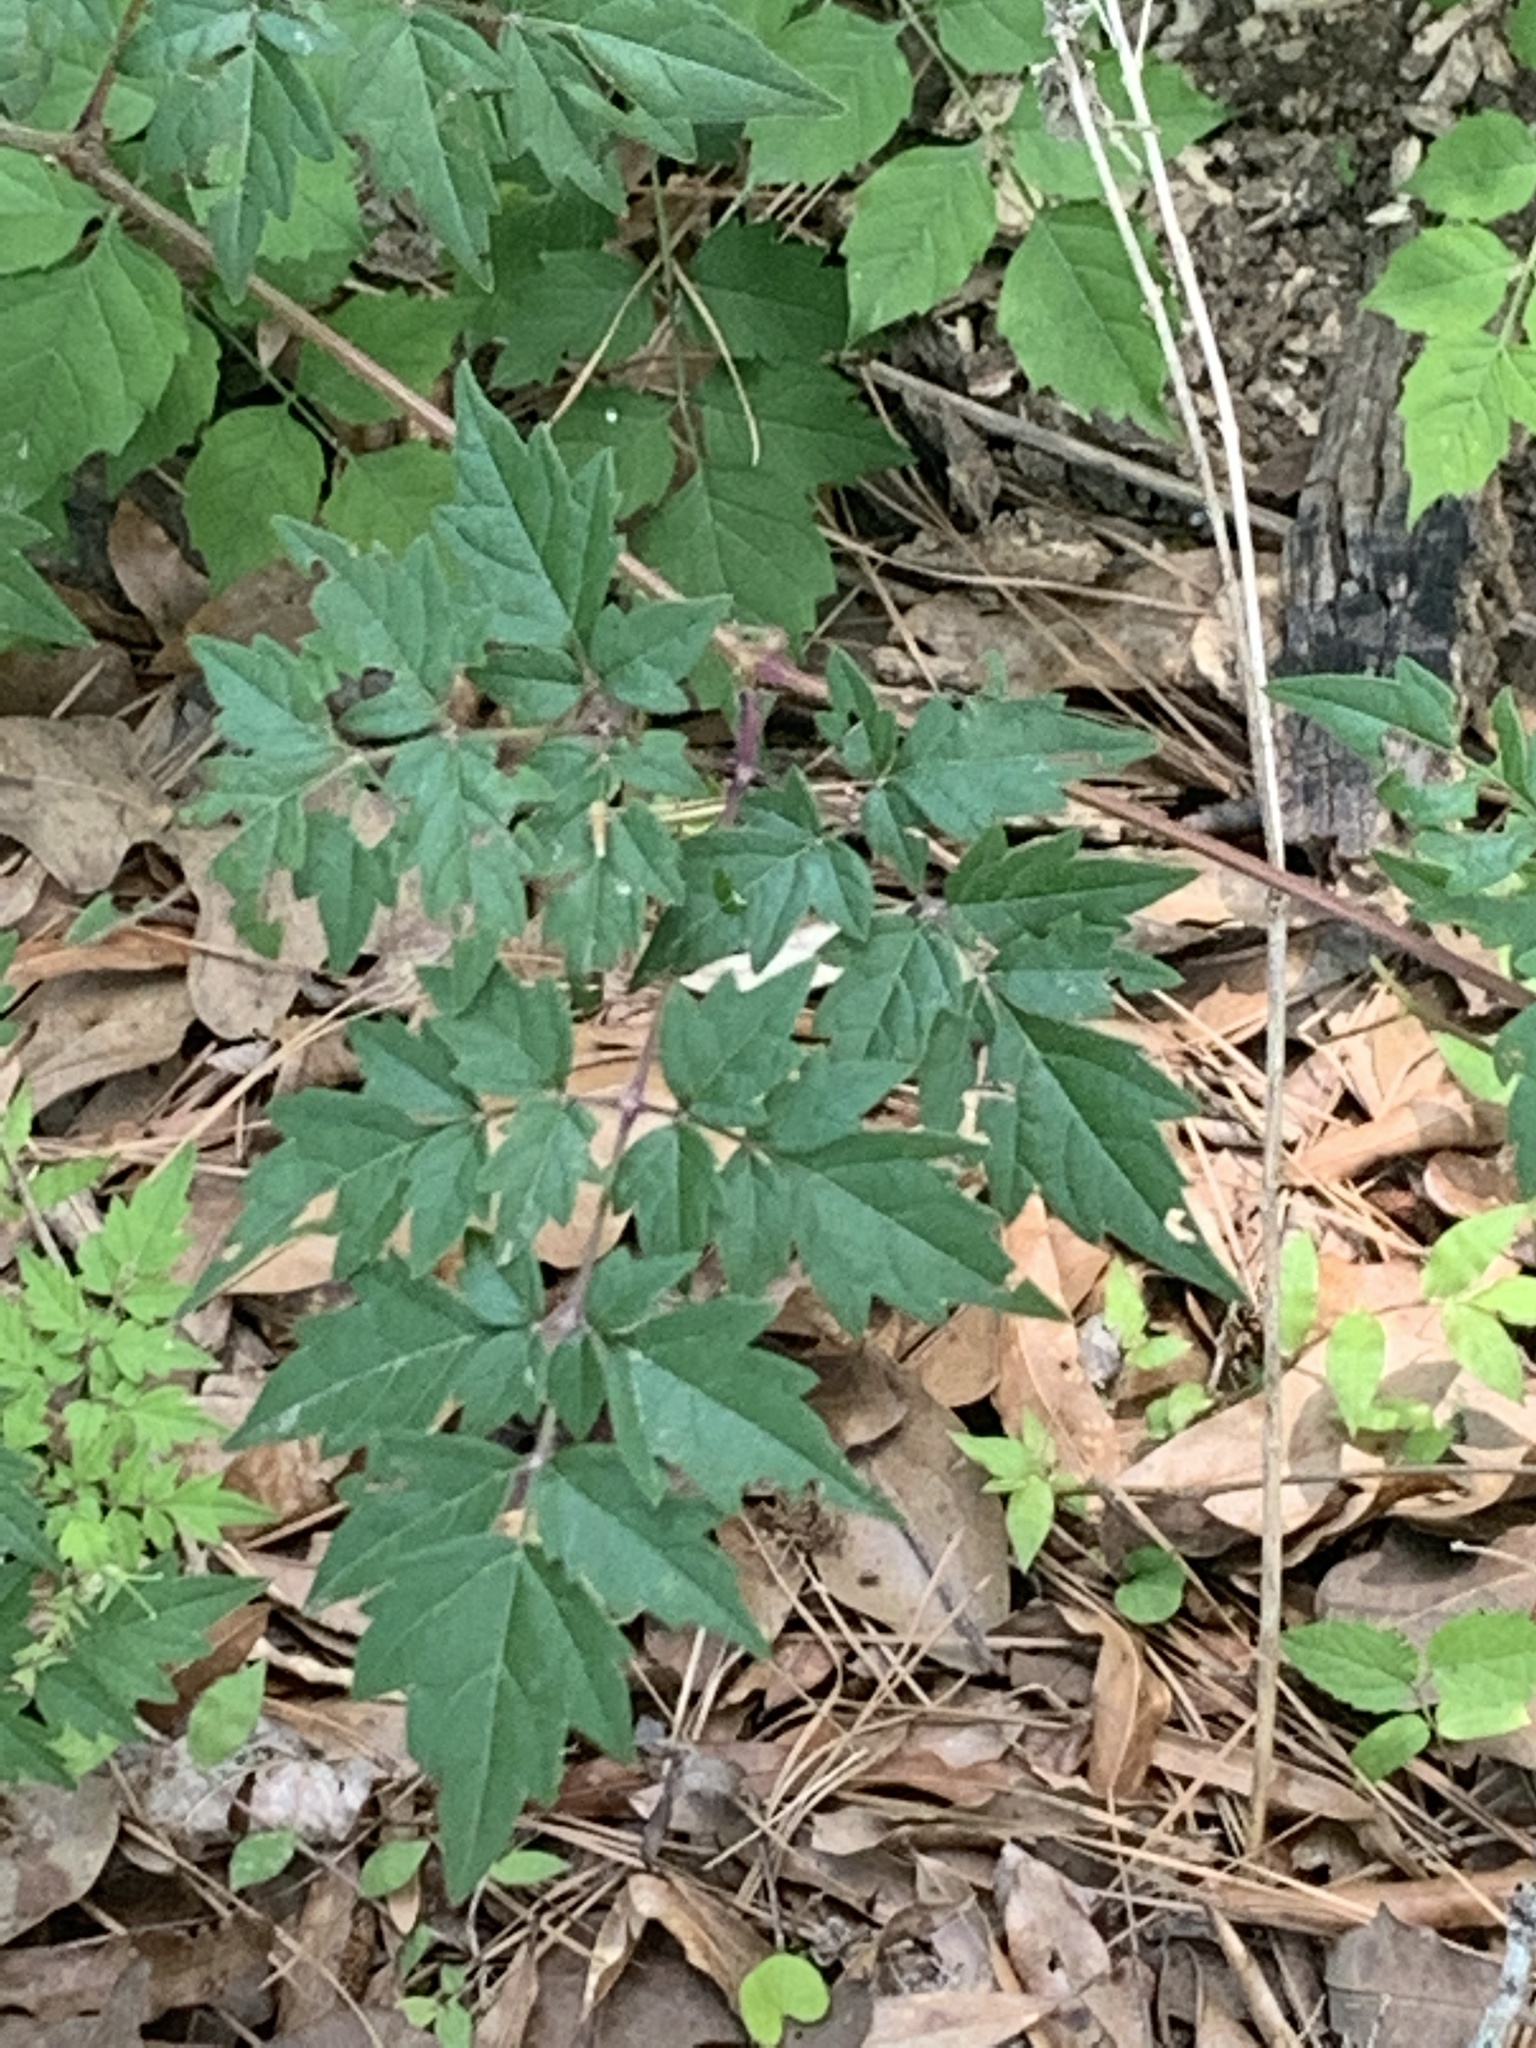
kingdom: Plantae
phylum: Tracheophyta
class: Magnoliopsida
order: Vitales
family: Vitaceae
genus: Nekemias
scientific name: Nekemias arborea
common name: Peppervine
